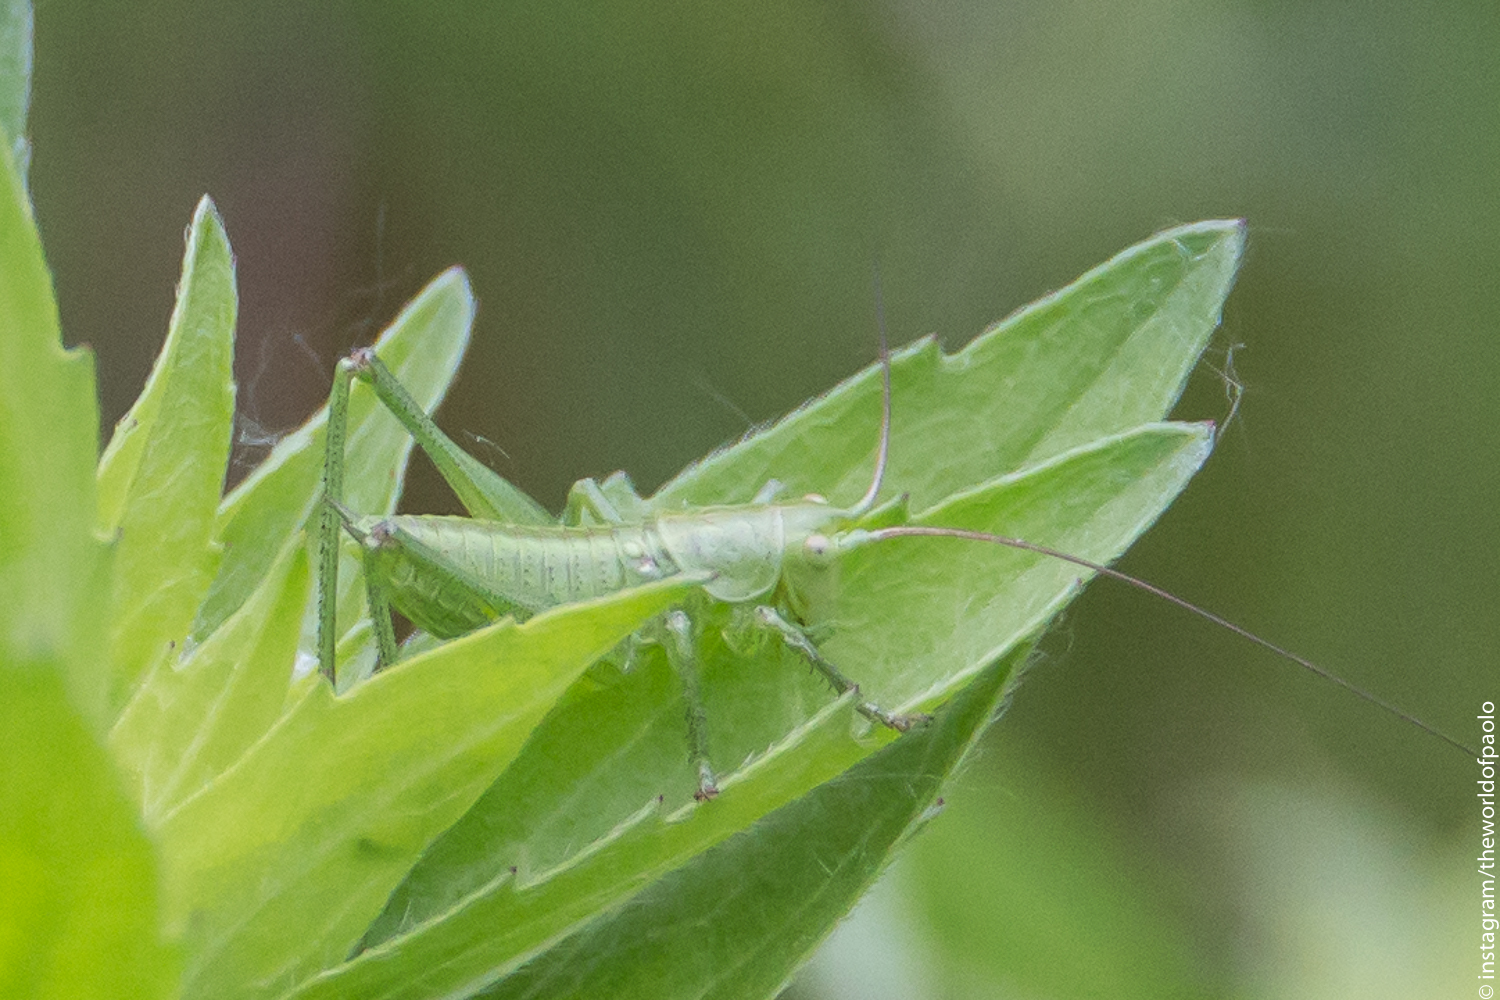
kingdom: Animalia
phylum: Arthropoda
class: Insecta
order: Orthoptera
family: Tettigoniidae
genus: Tettigonia
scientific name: Tettigonia viridissima
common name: Great green bush-cricket
